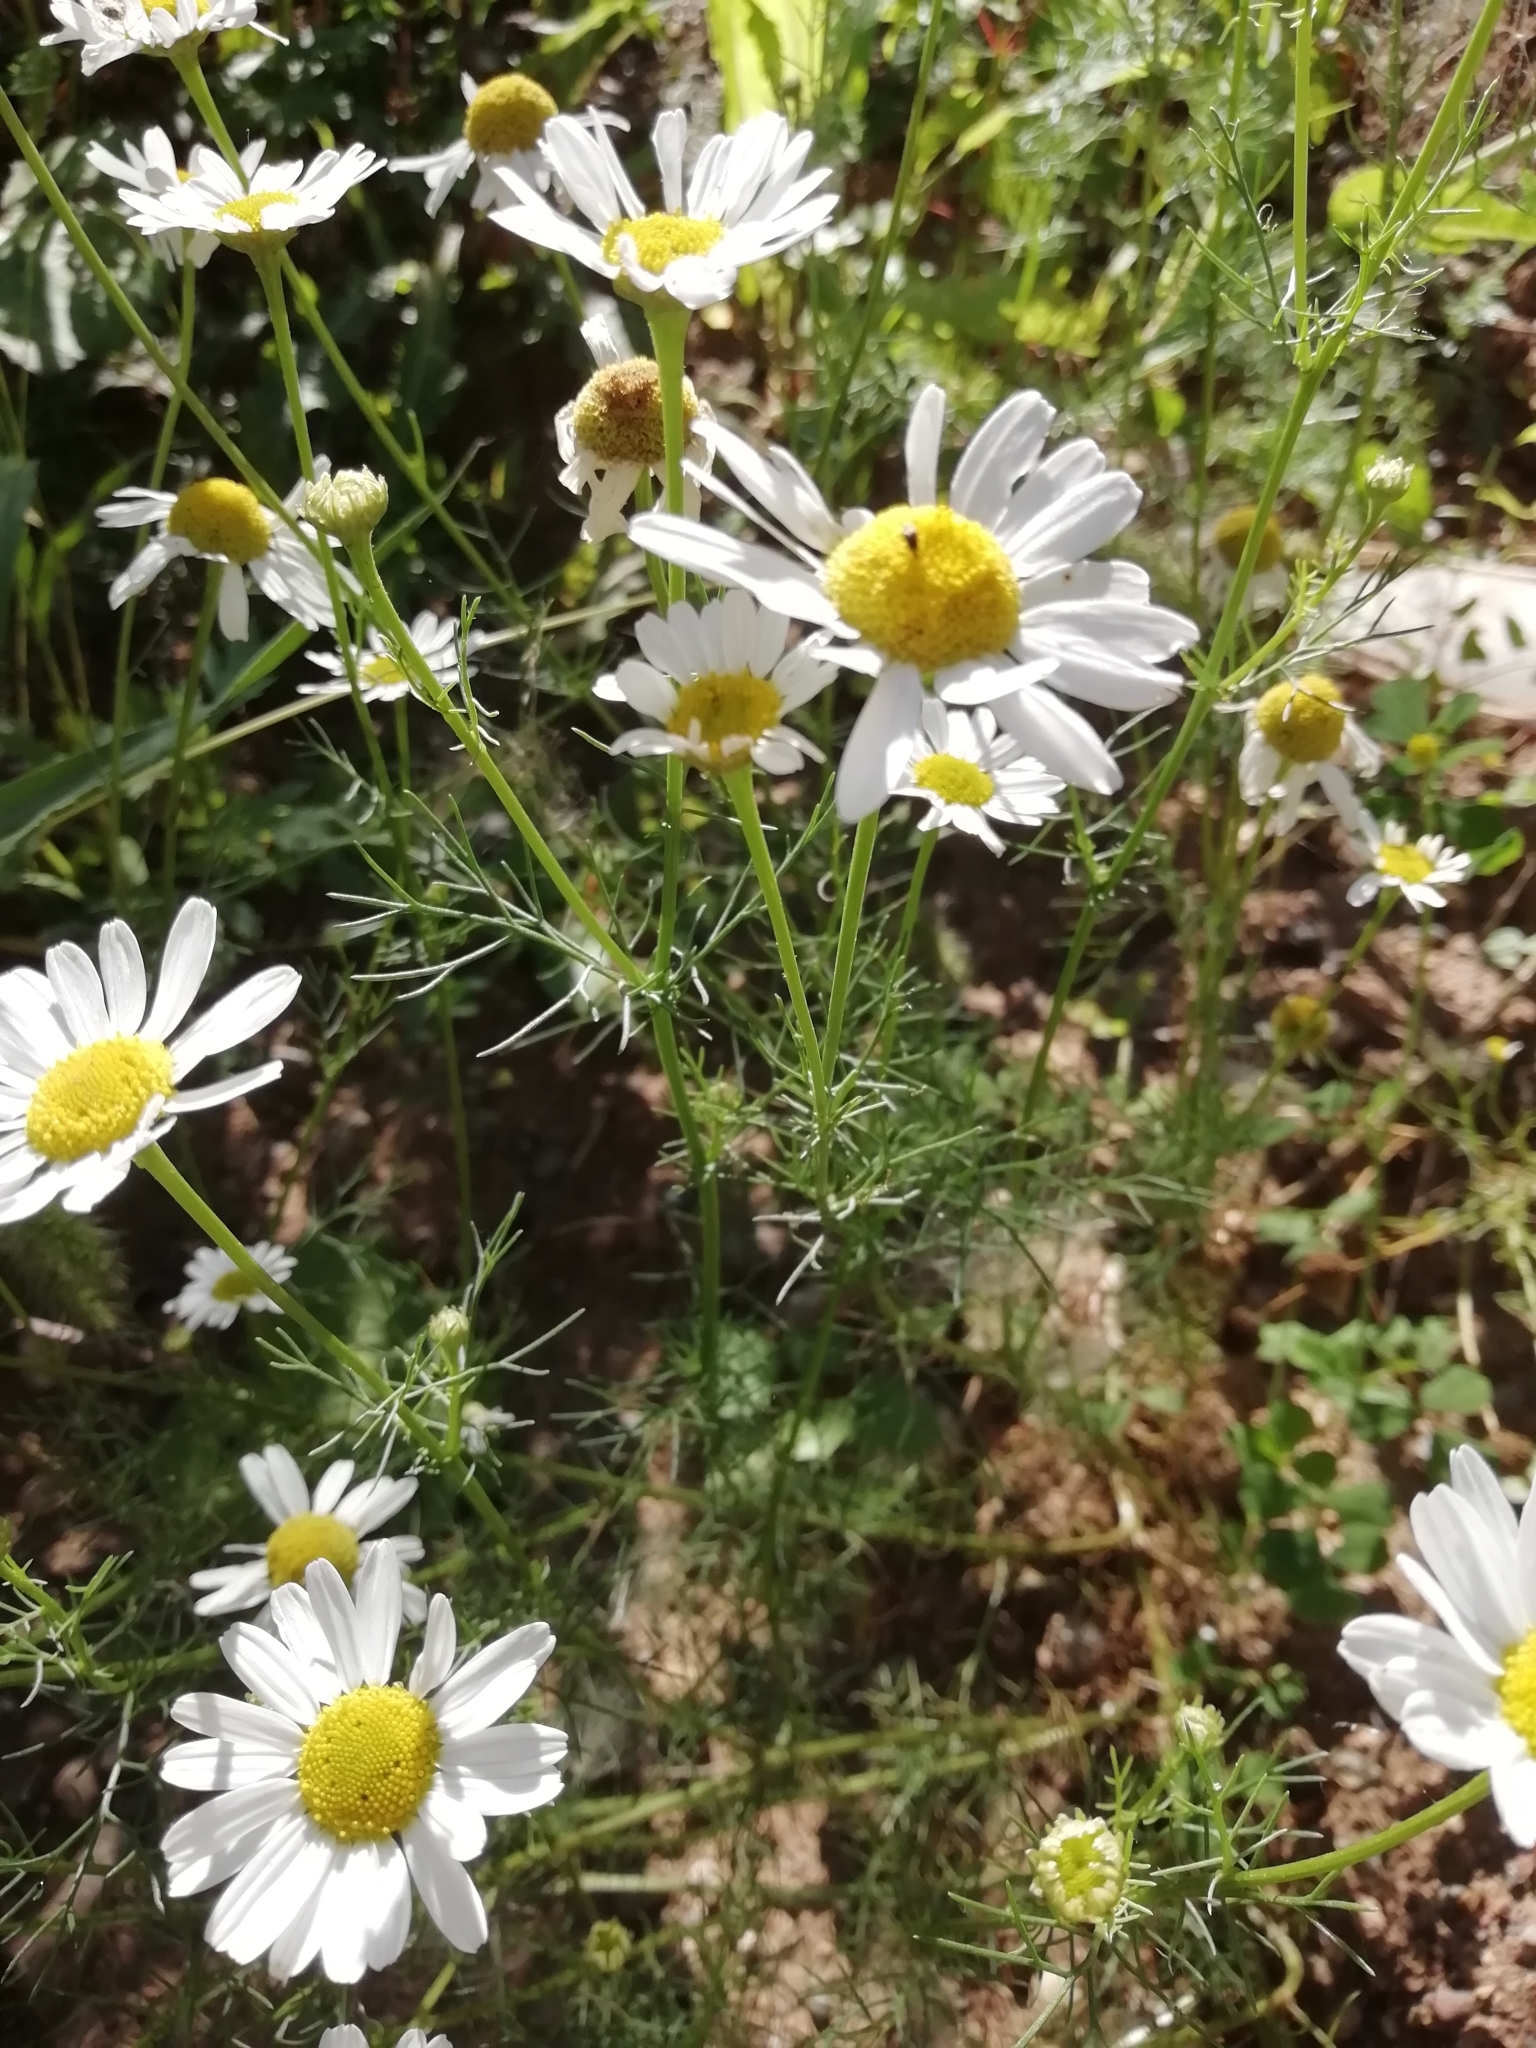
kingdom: Plantae
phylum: Tracheophyta
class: Magnoliopsida
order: Asterales
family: Asteraceae
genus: Tripleurospermum
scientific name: Tripleurospermum inodorum
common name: Scentless mayweed
